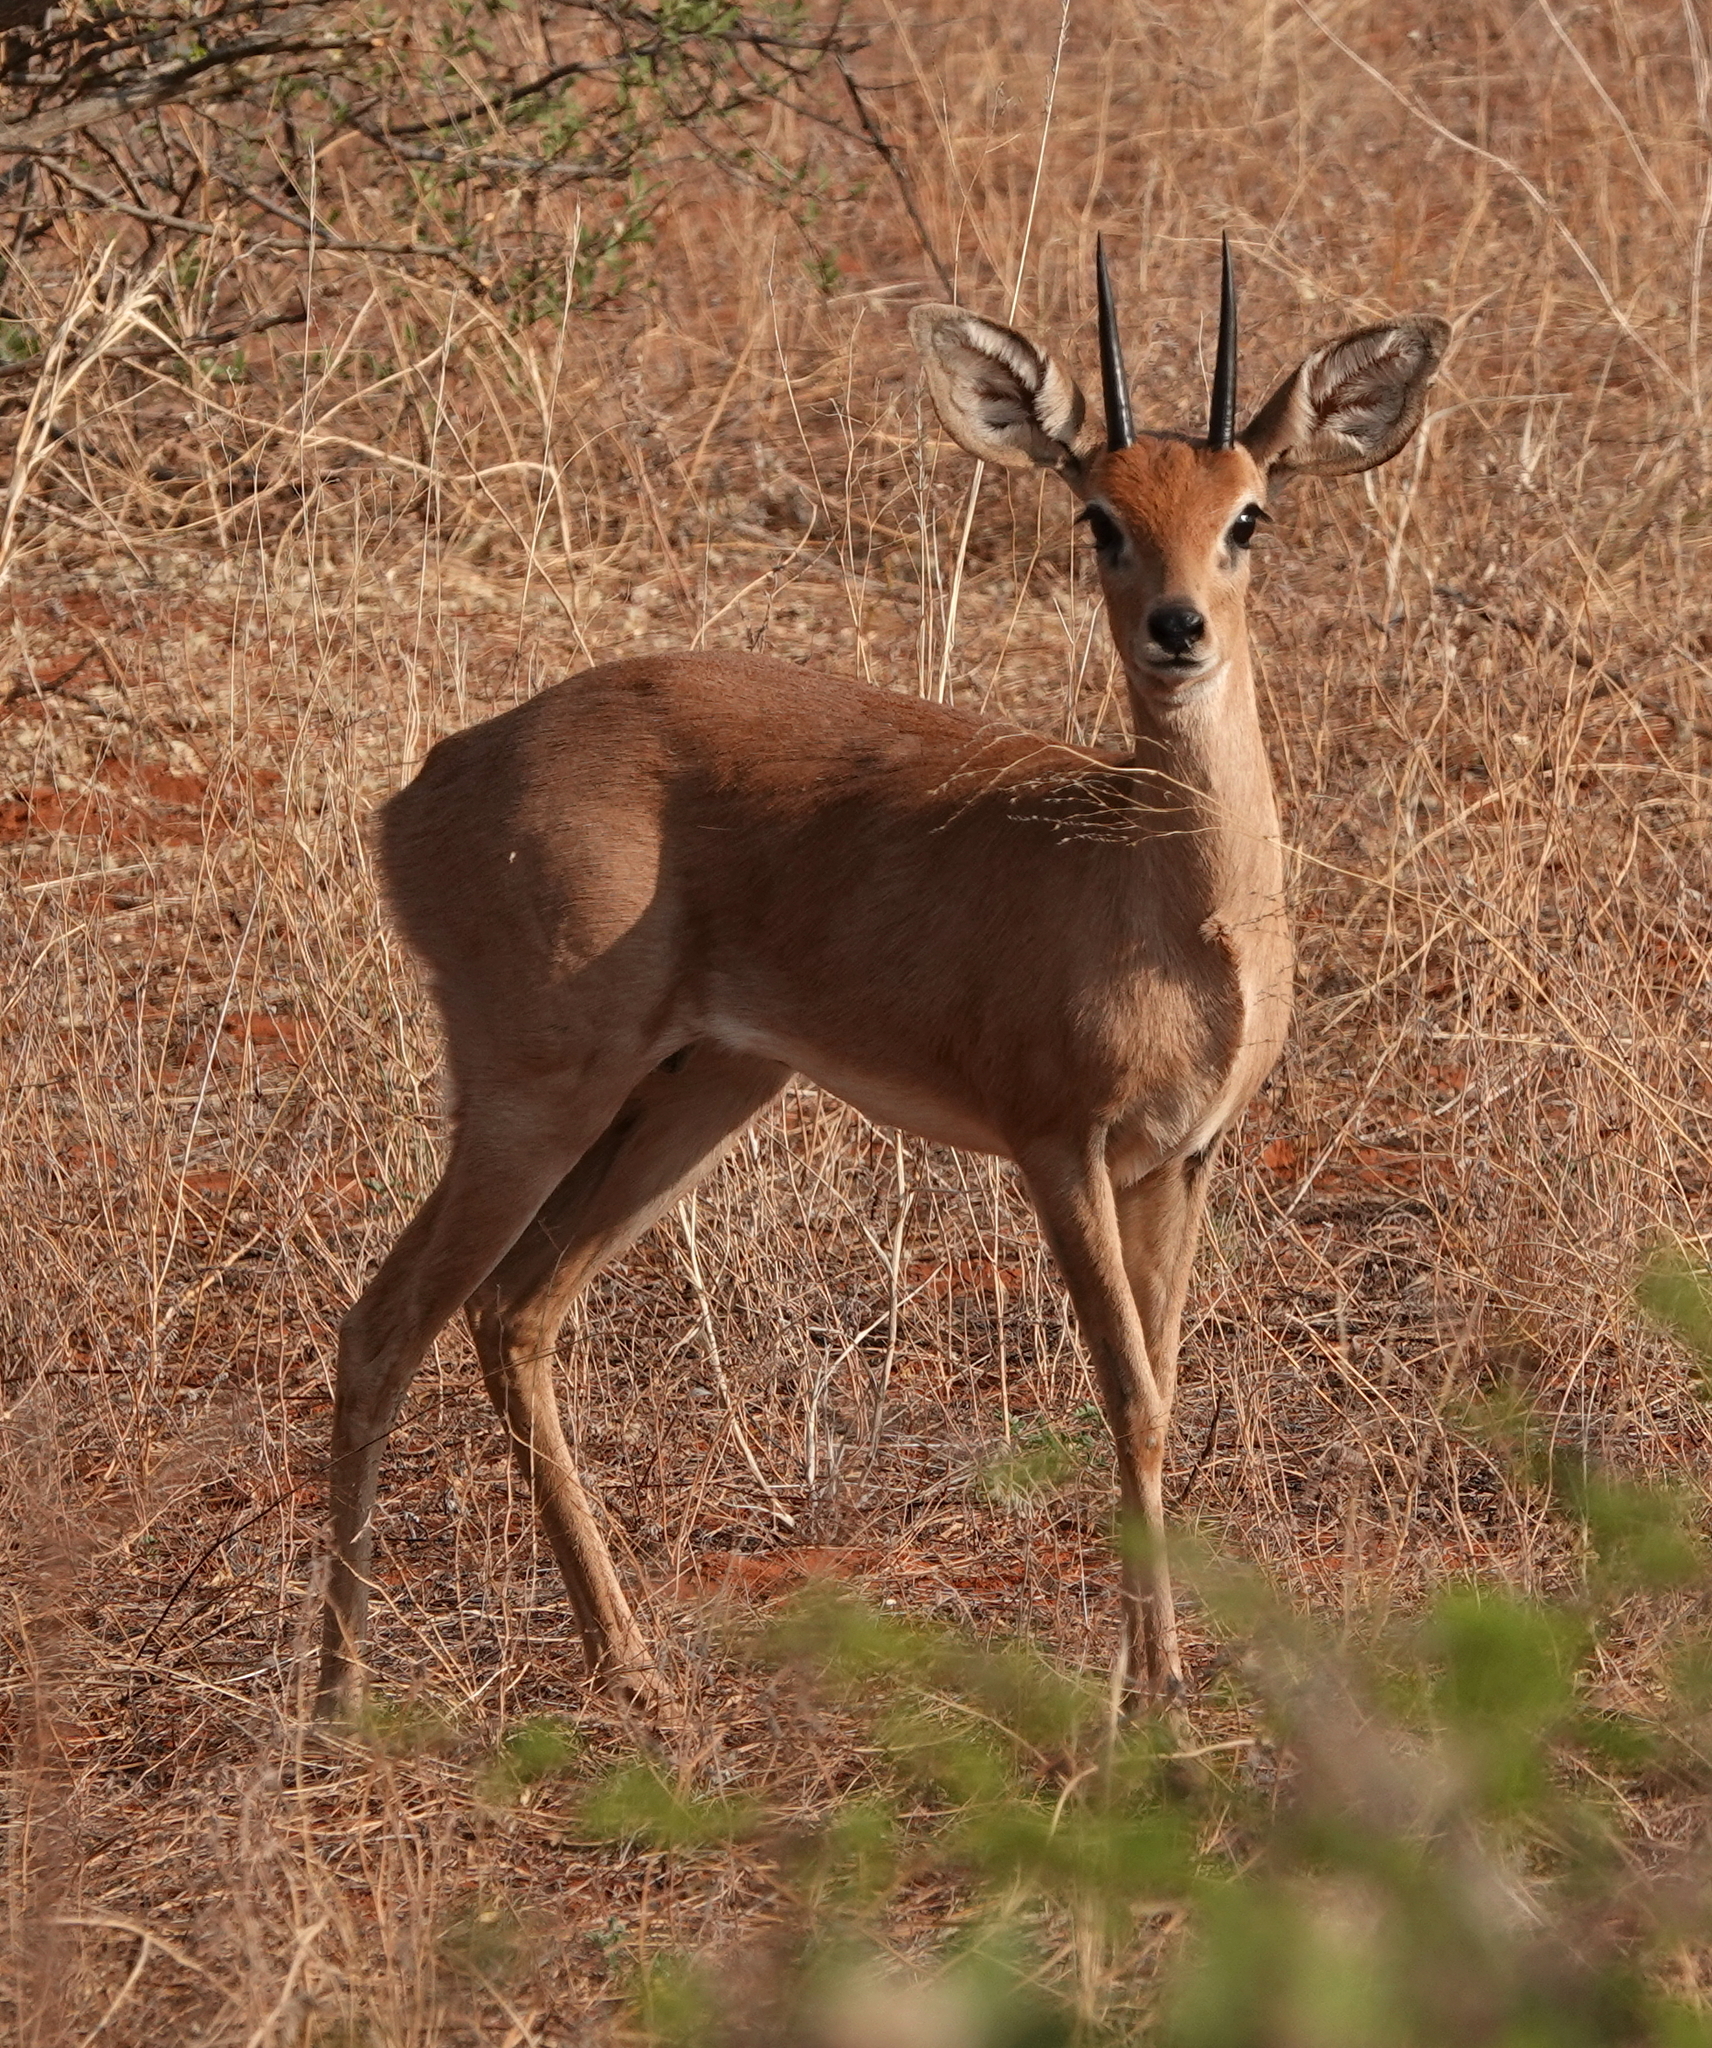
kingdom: Animalia
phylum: Chordata
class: Mammalia
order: Artiodactyla
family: Bovidae
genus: Raphicerus
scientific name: Raphicerus campestris
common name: Steenbok
